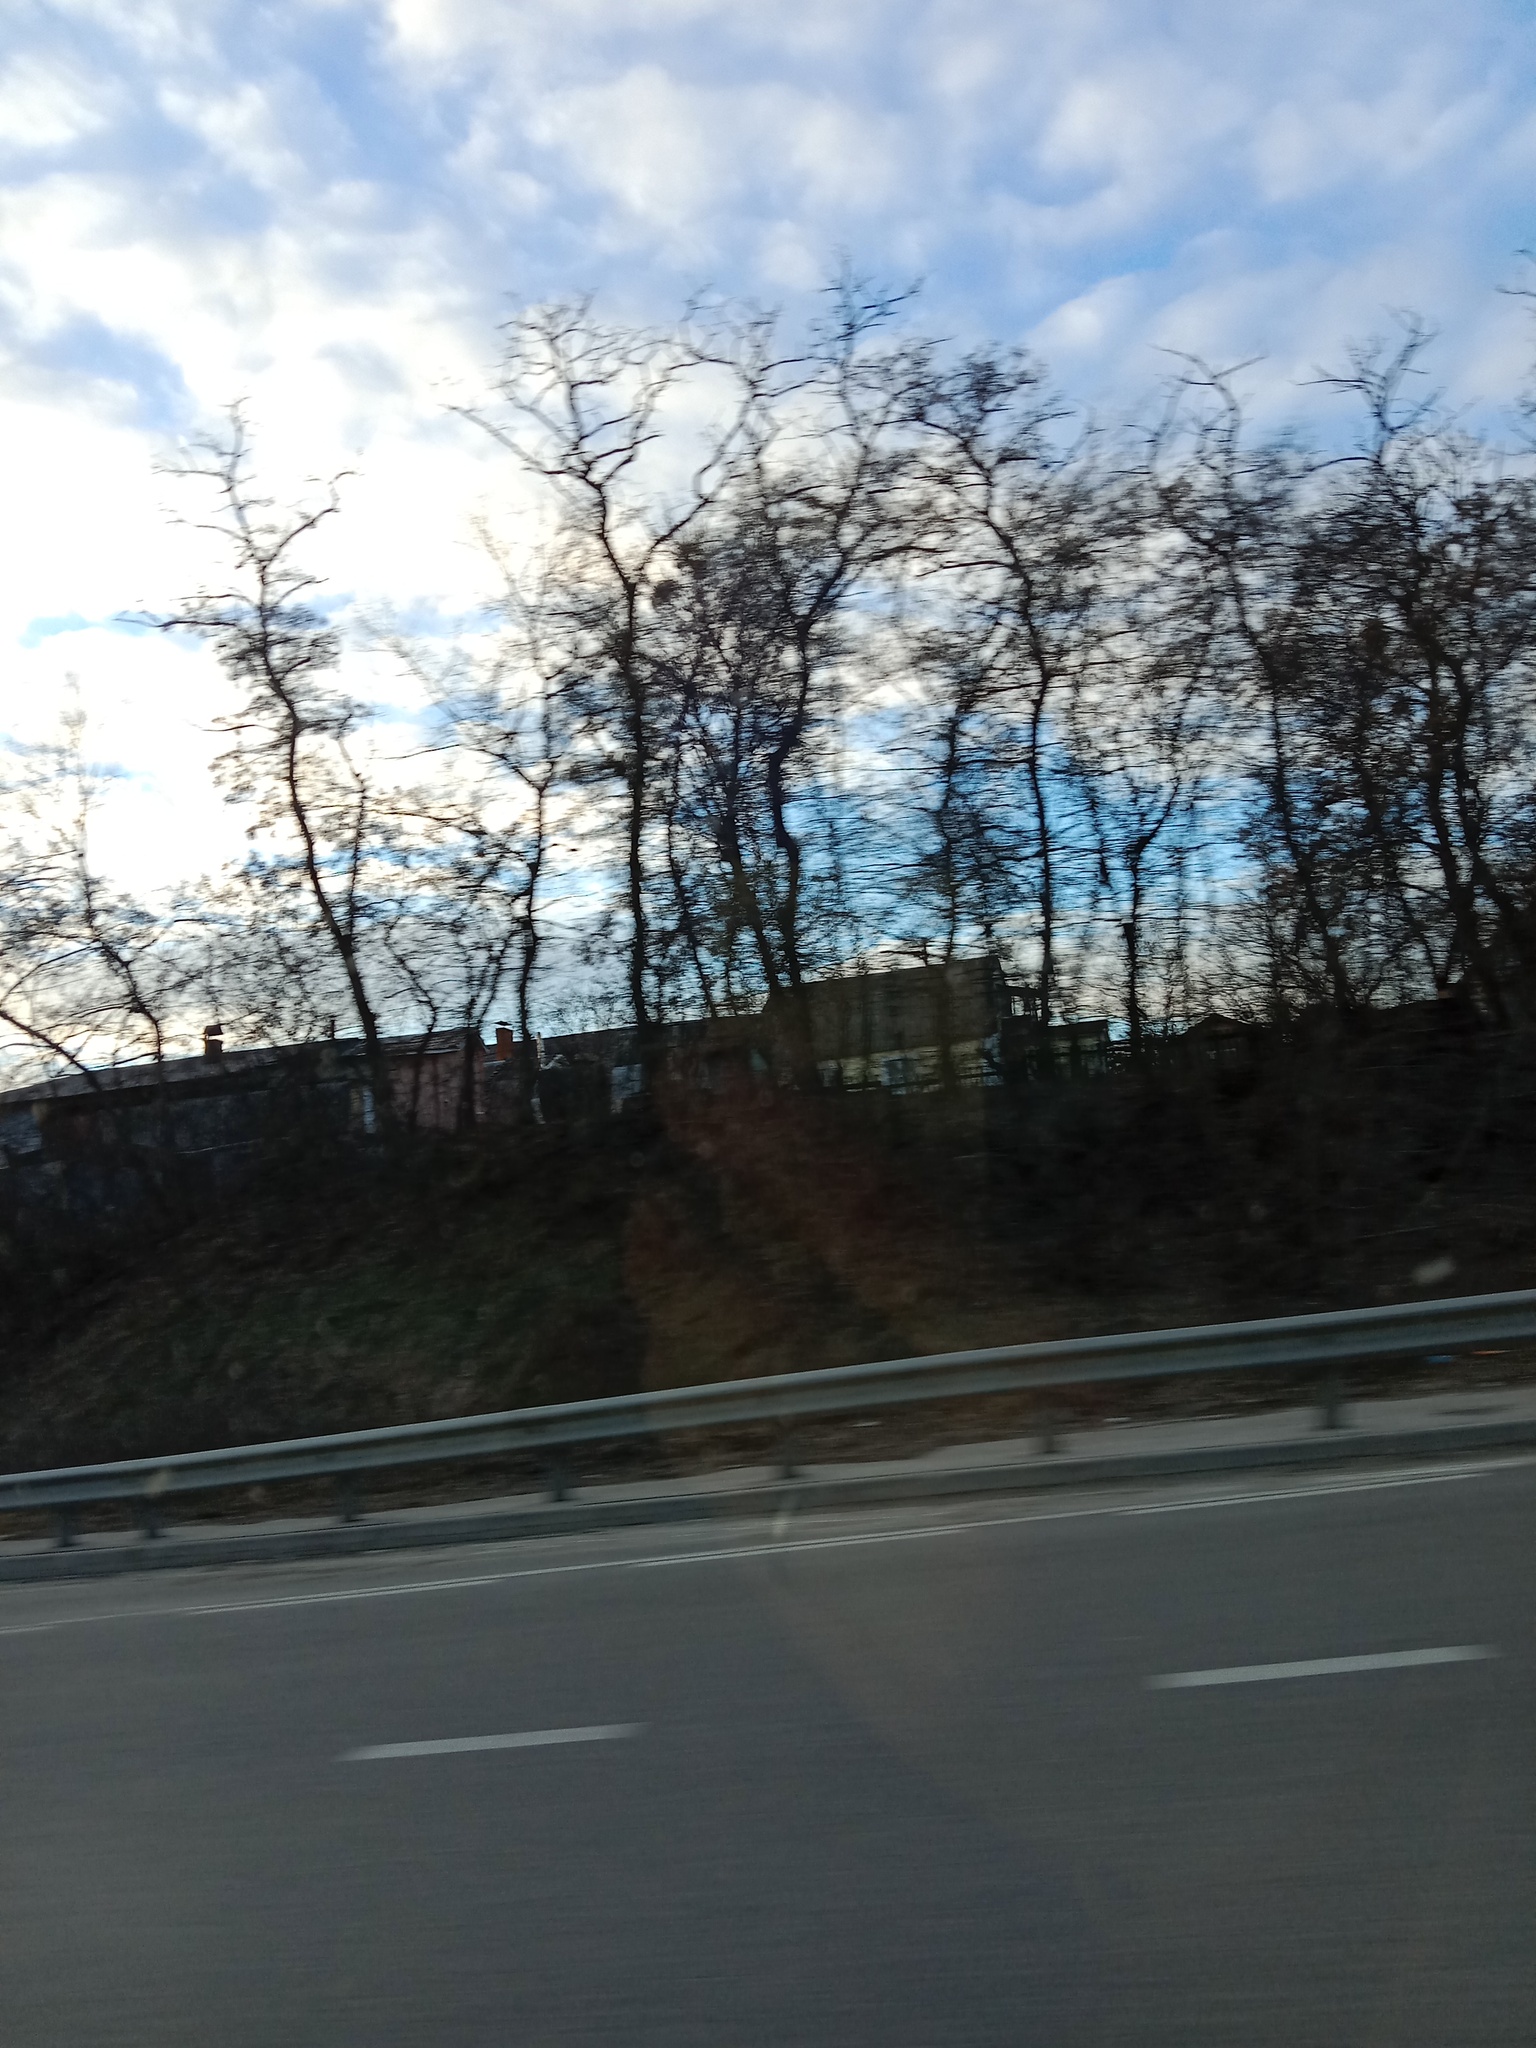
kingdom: Plantae
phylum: Tracheophyta
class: Magnoliopsida
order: Santalales
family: Viscaceae
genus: Viscum
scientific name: Viscum album
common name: Mistletoe
